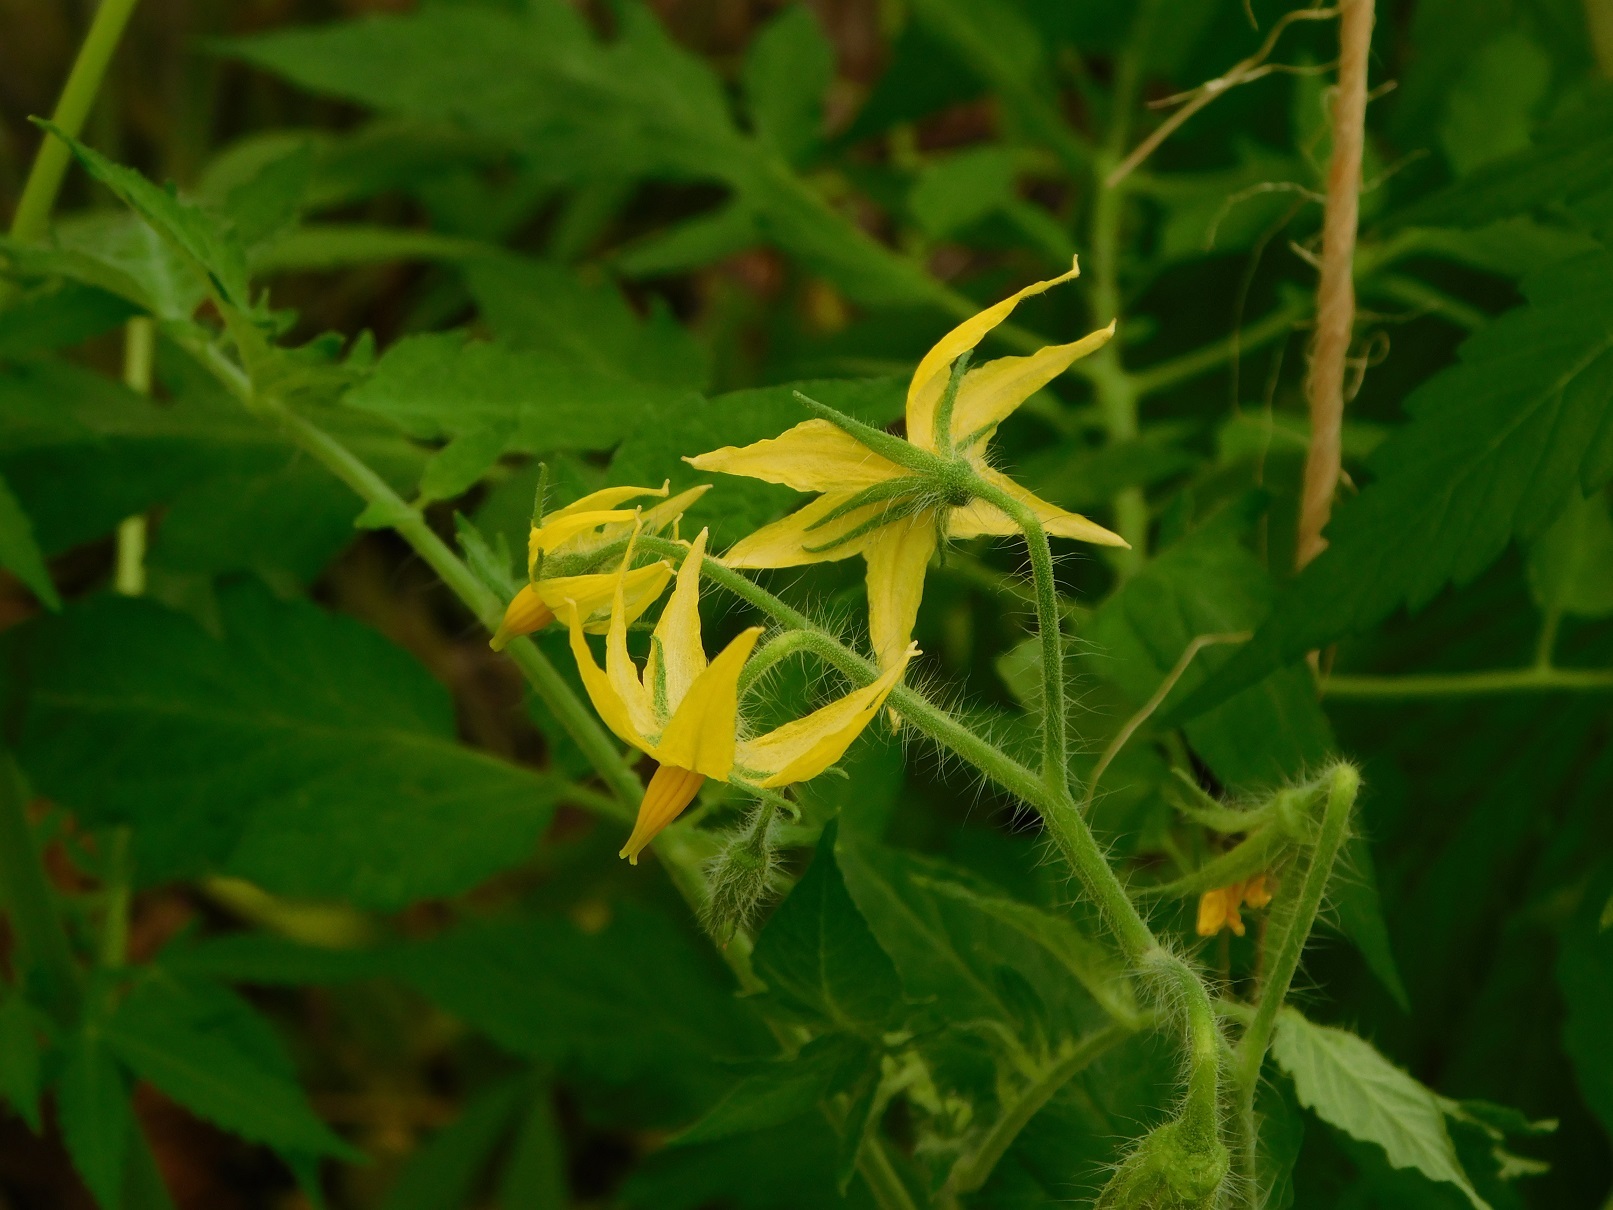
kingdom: Plantae
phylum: Tracheophyta
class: Magnoliopsida
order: Solanales
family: Solanaceae
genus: Solanum
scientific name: Solanum lycopersicum
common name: Garden tomato
